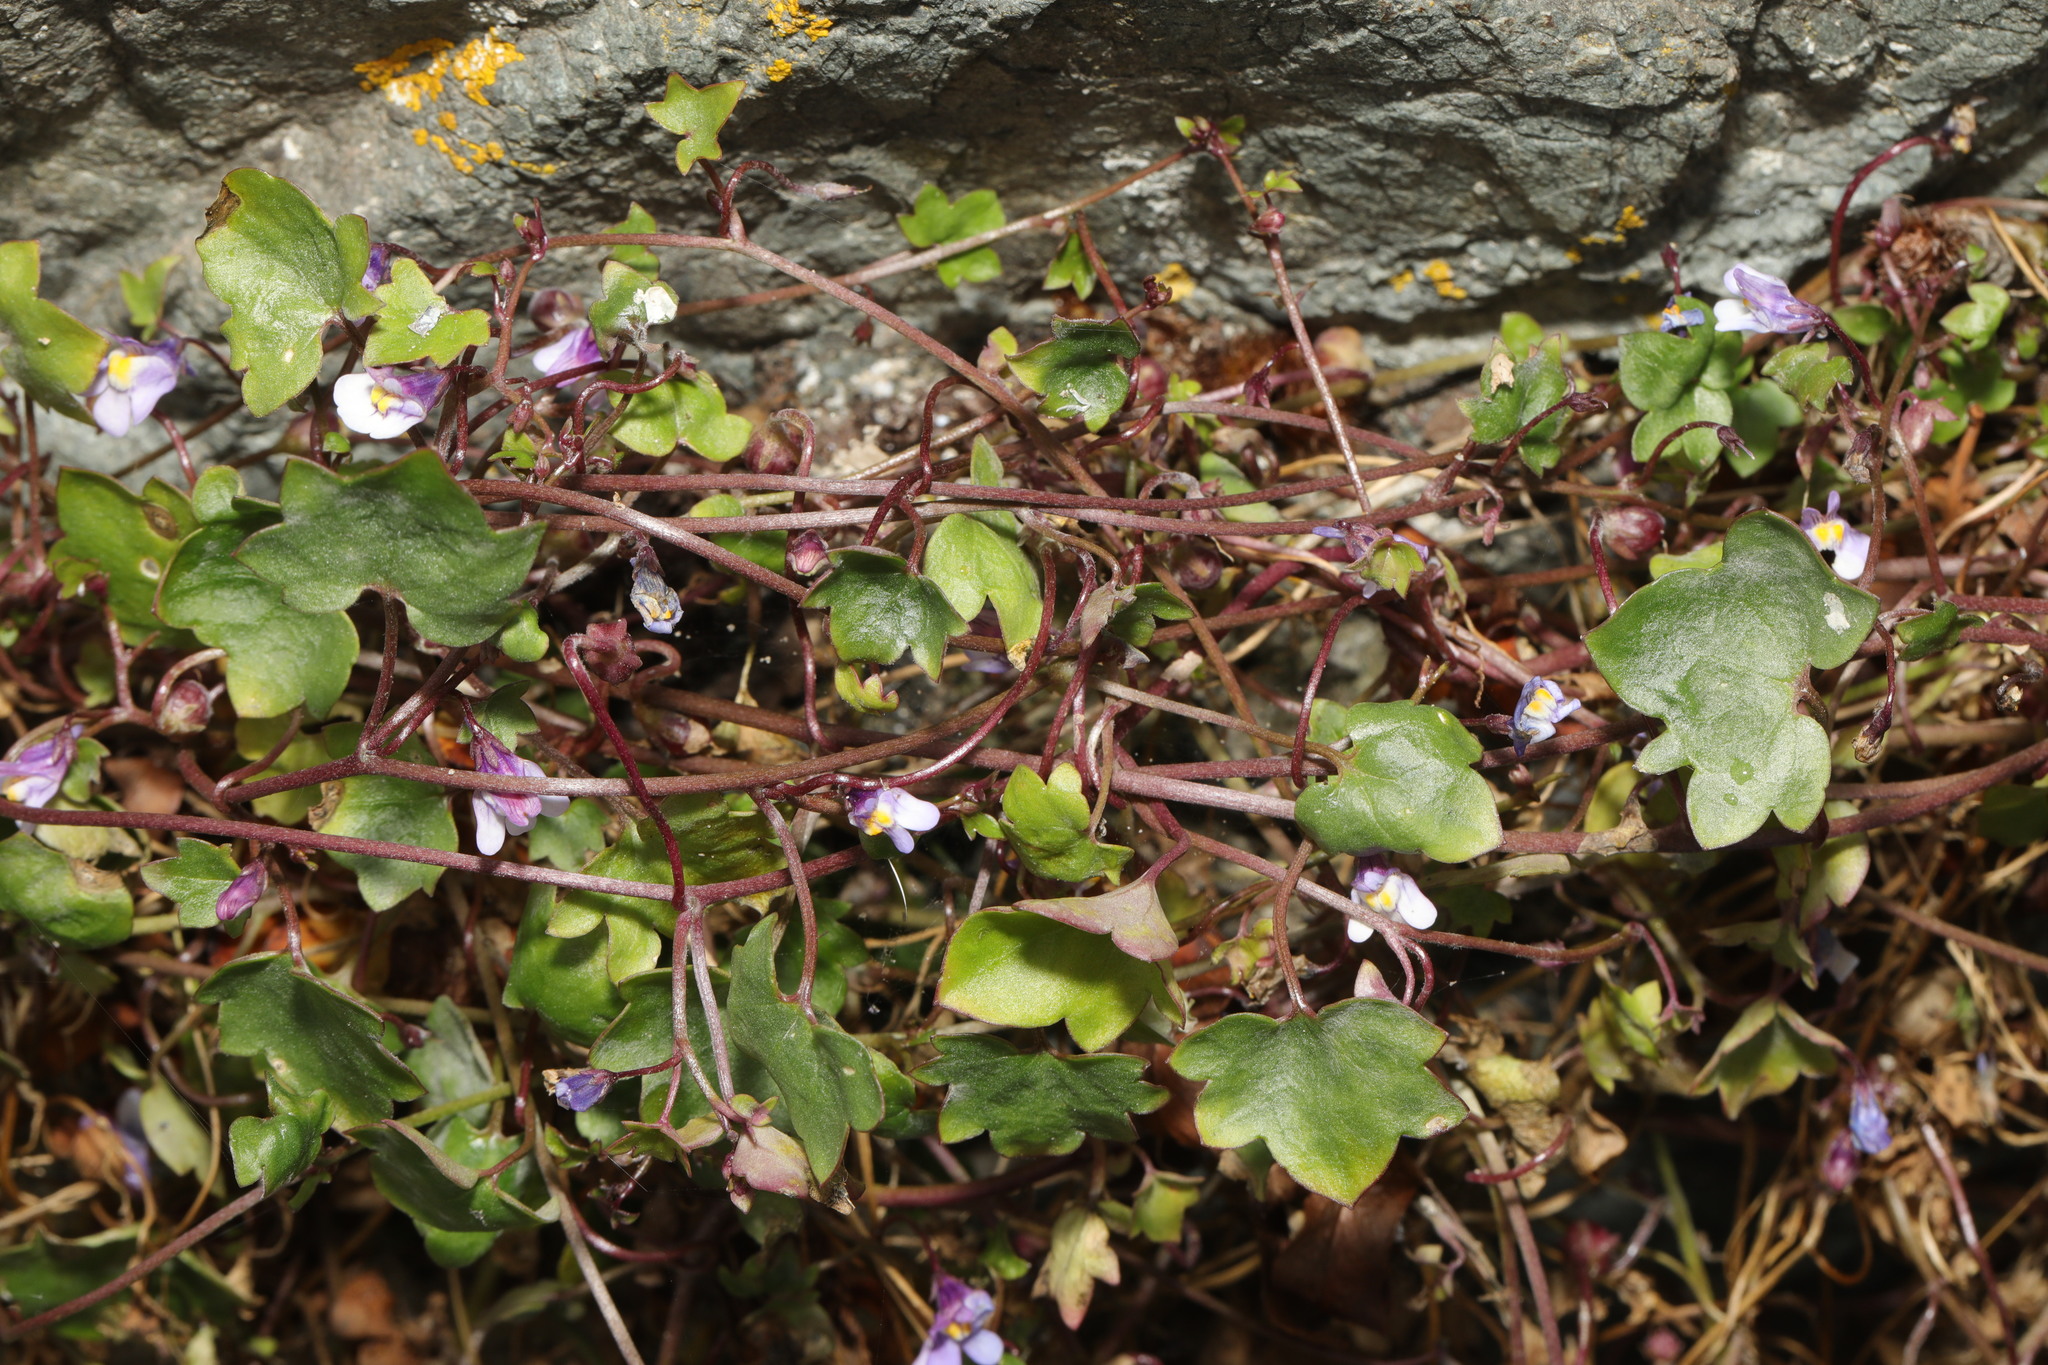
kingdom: Plantae
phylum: Tracheophyta
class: Magnoliopsida
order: Lamiales
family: Plantaginaceae
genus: Cymbalaria
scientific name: Cymbalaria muralis
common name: Ivy-leaved toadflax
